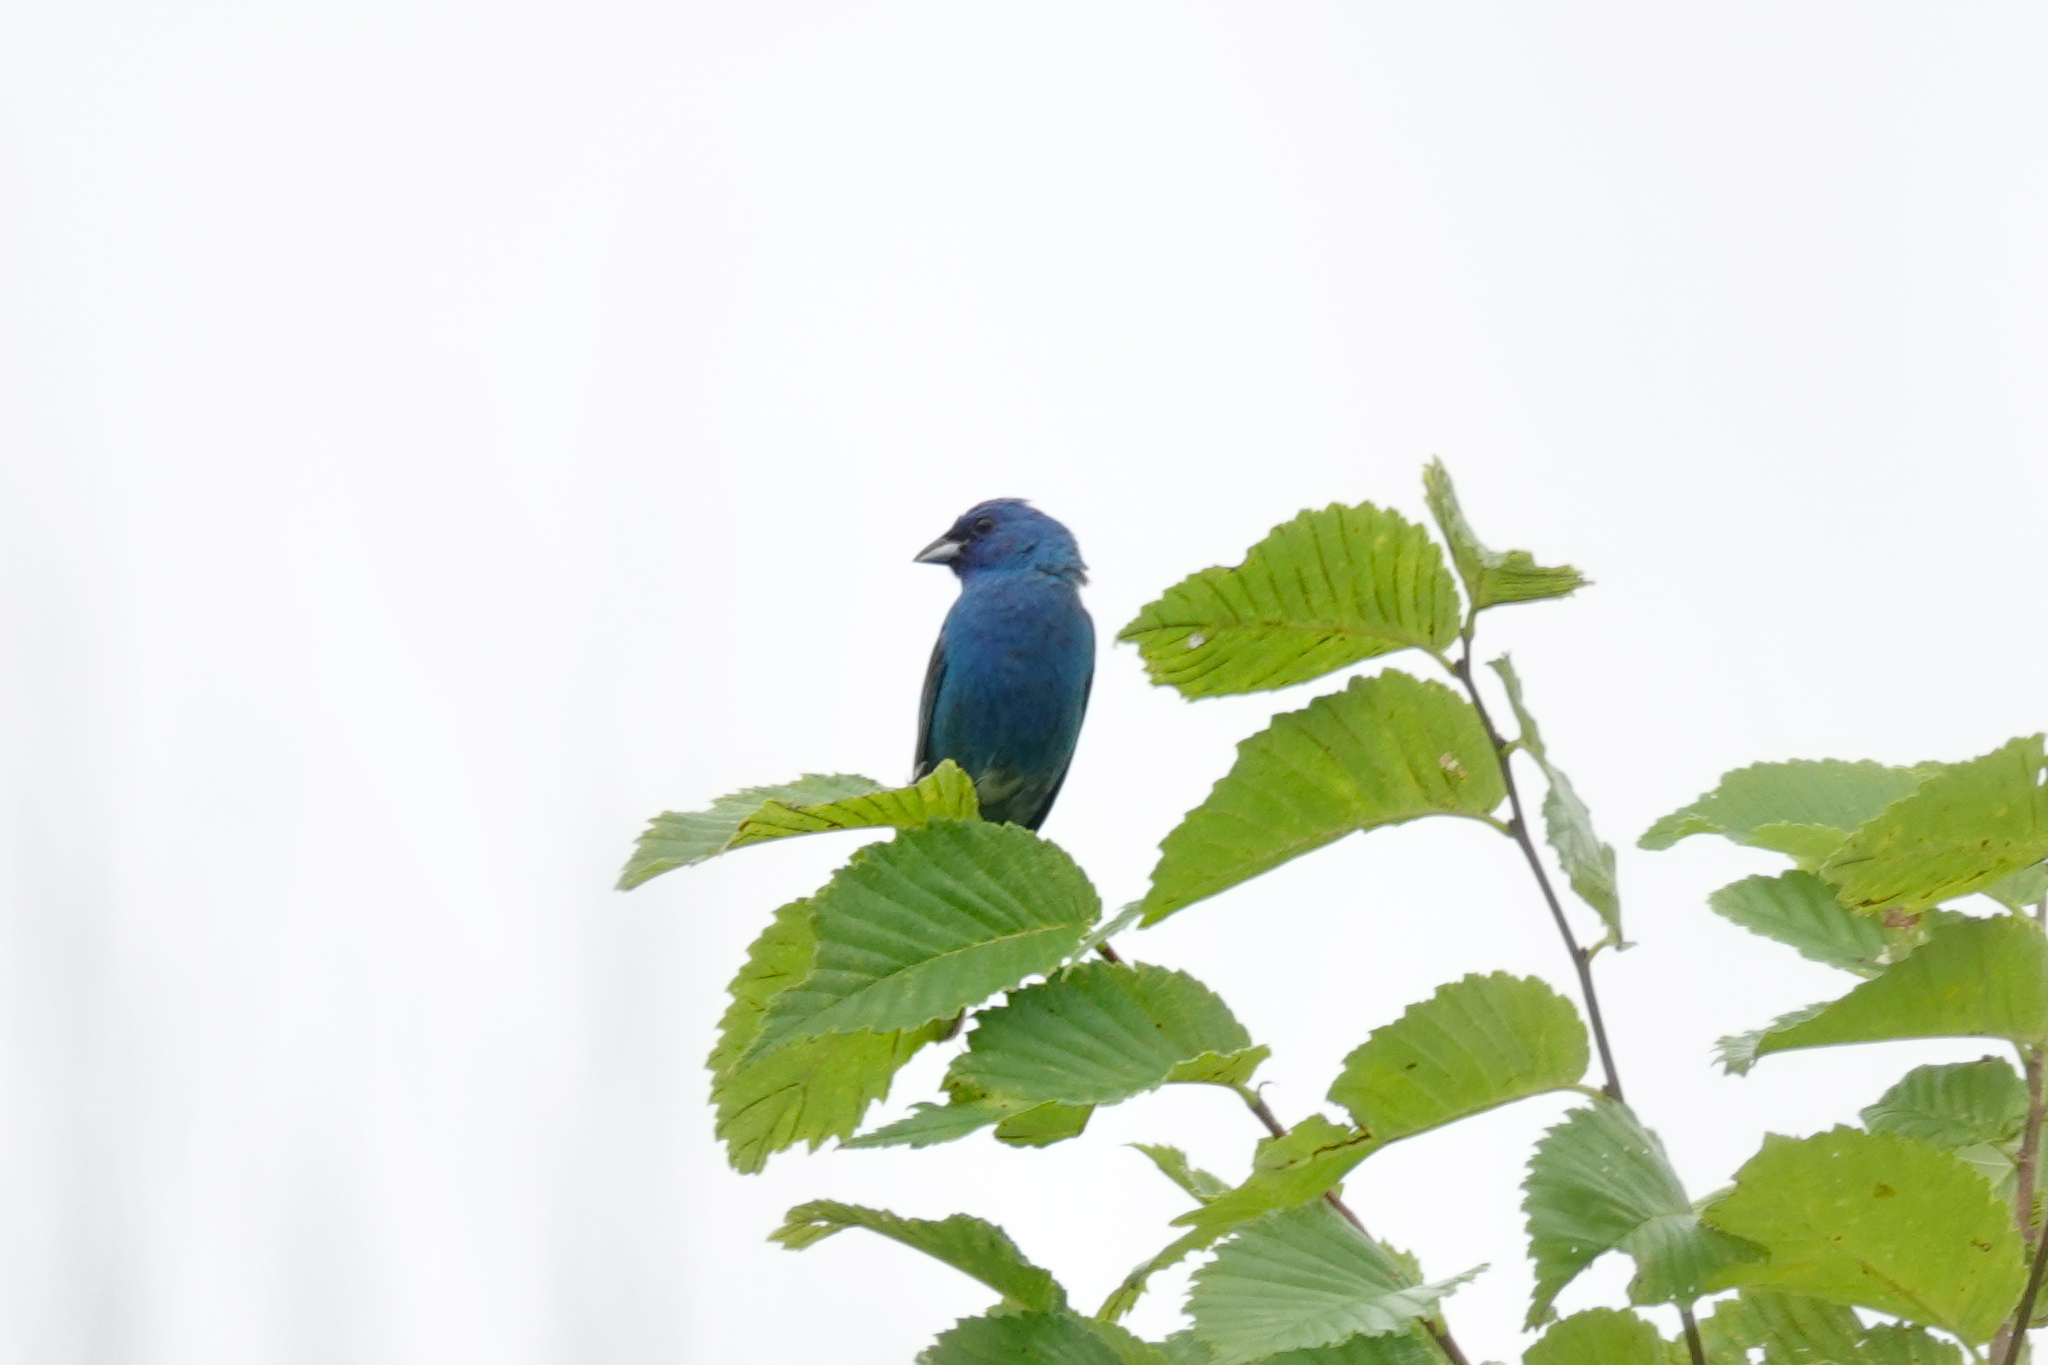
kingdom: Animalia
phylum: Chordata
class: Aves
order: Passeriformes
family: Cardinalidae
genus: Passerina
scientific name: Passerina cyanea
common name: Indigo bunting
